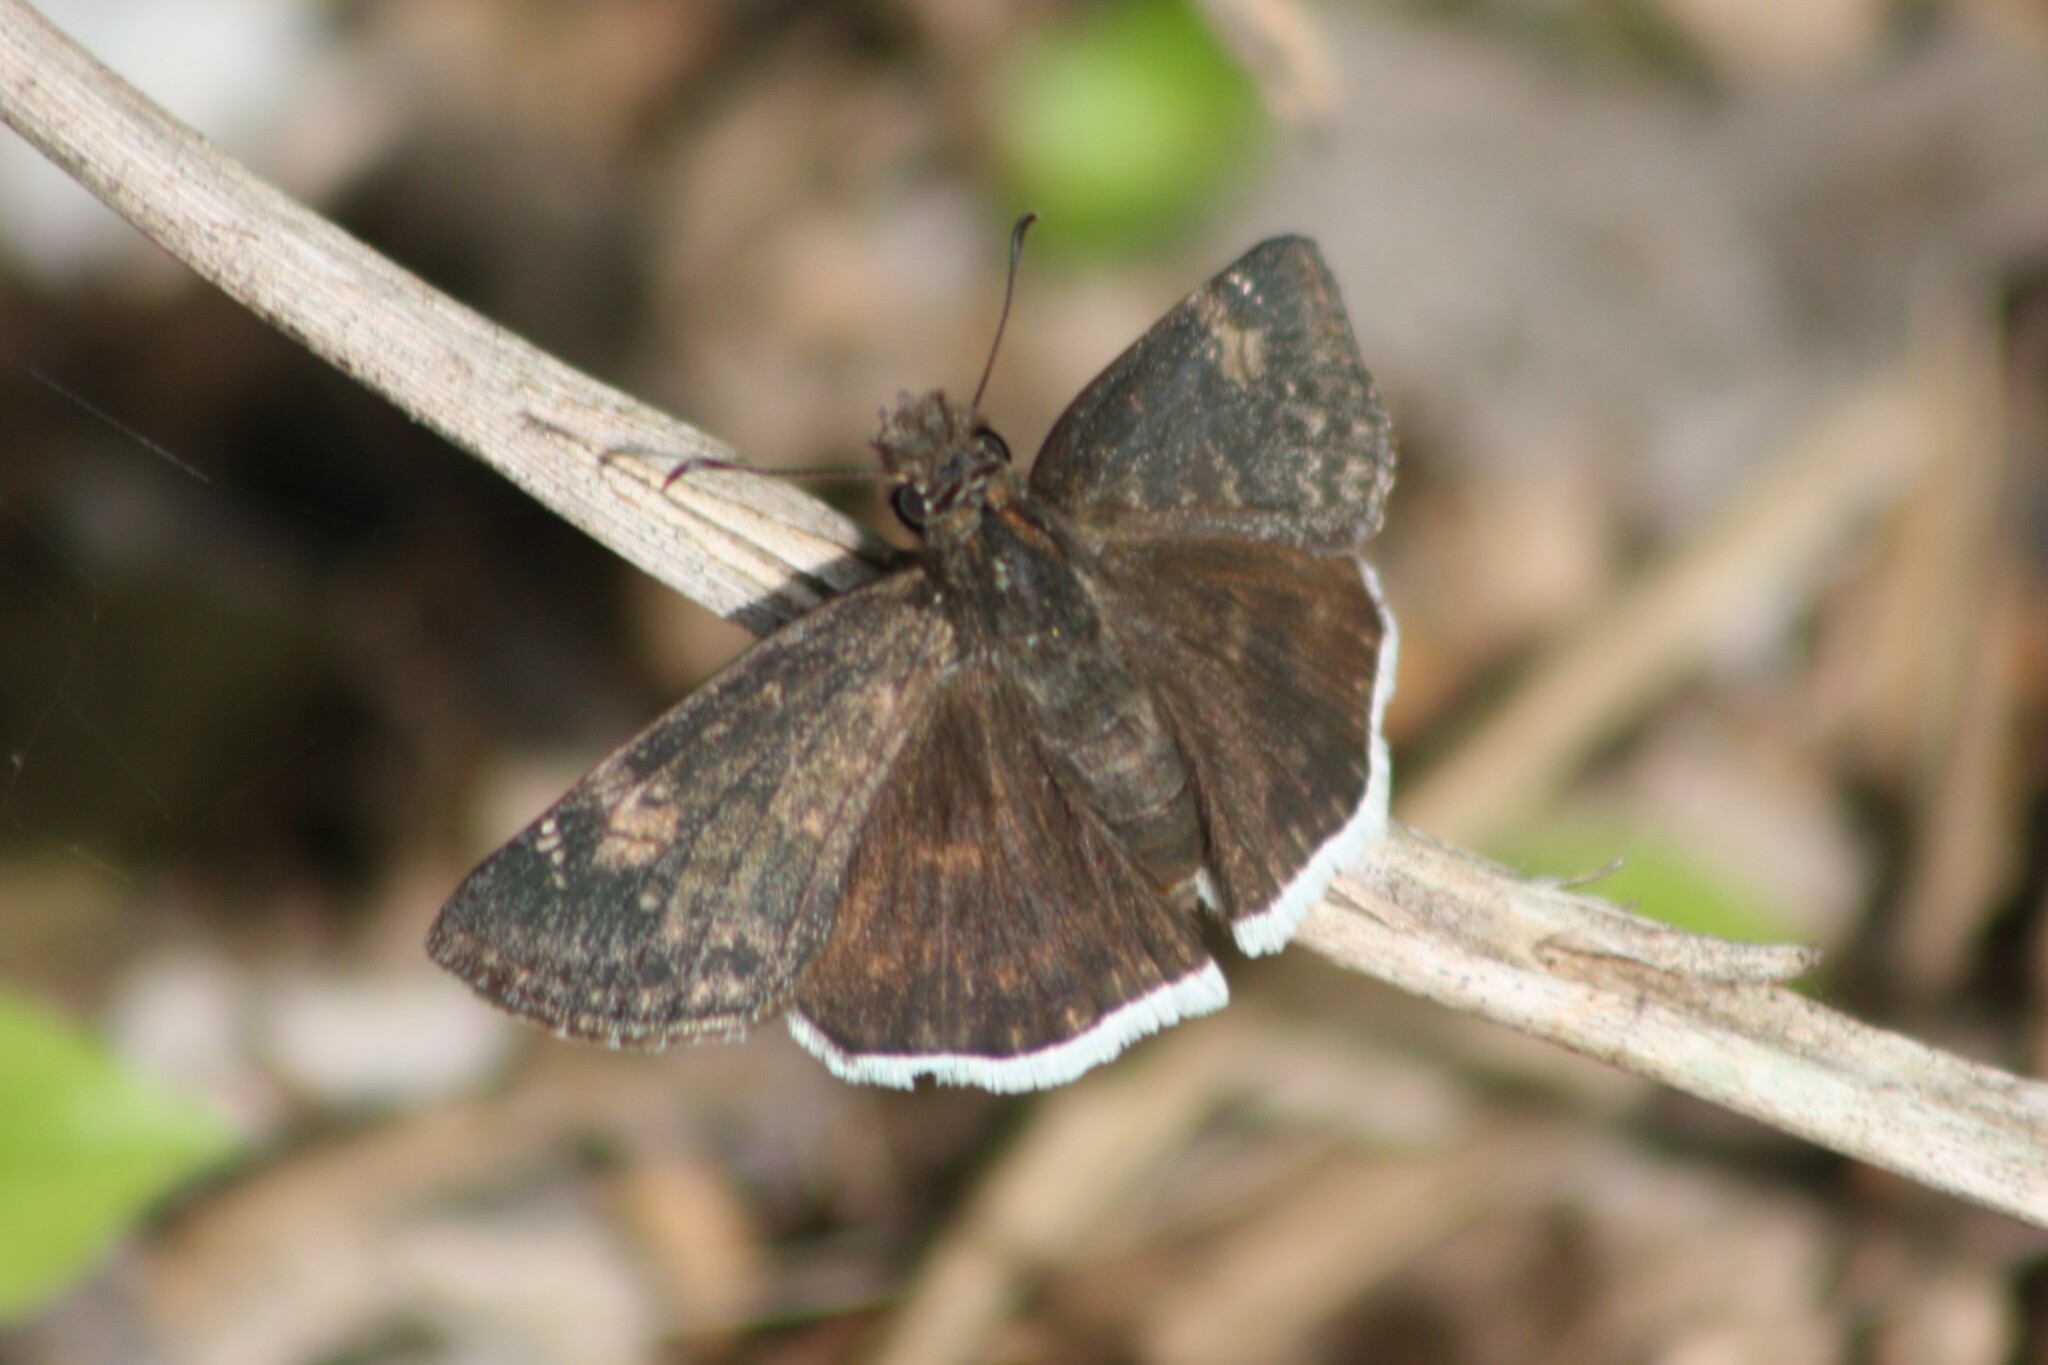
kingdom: Animalia
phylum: Arthropoda
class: Insecta
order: Lepidoptera
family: Hesperiidae
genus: Erynnis
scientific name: Erynnis funeralis
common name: Funereal duskywing
